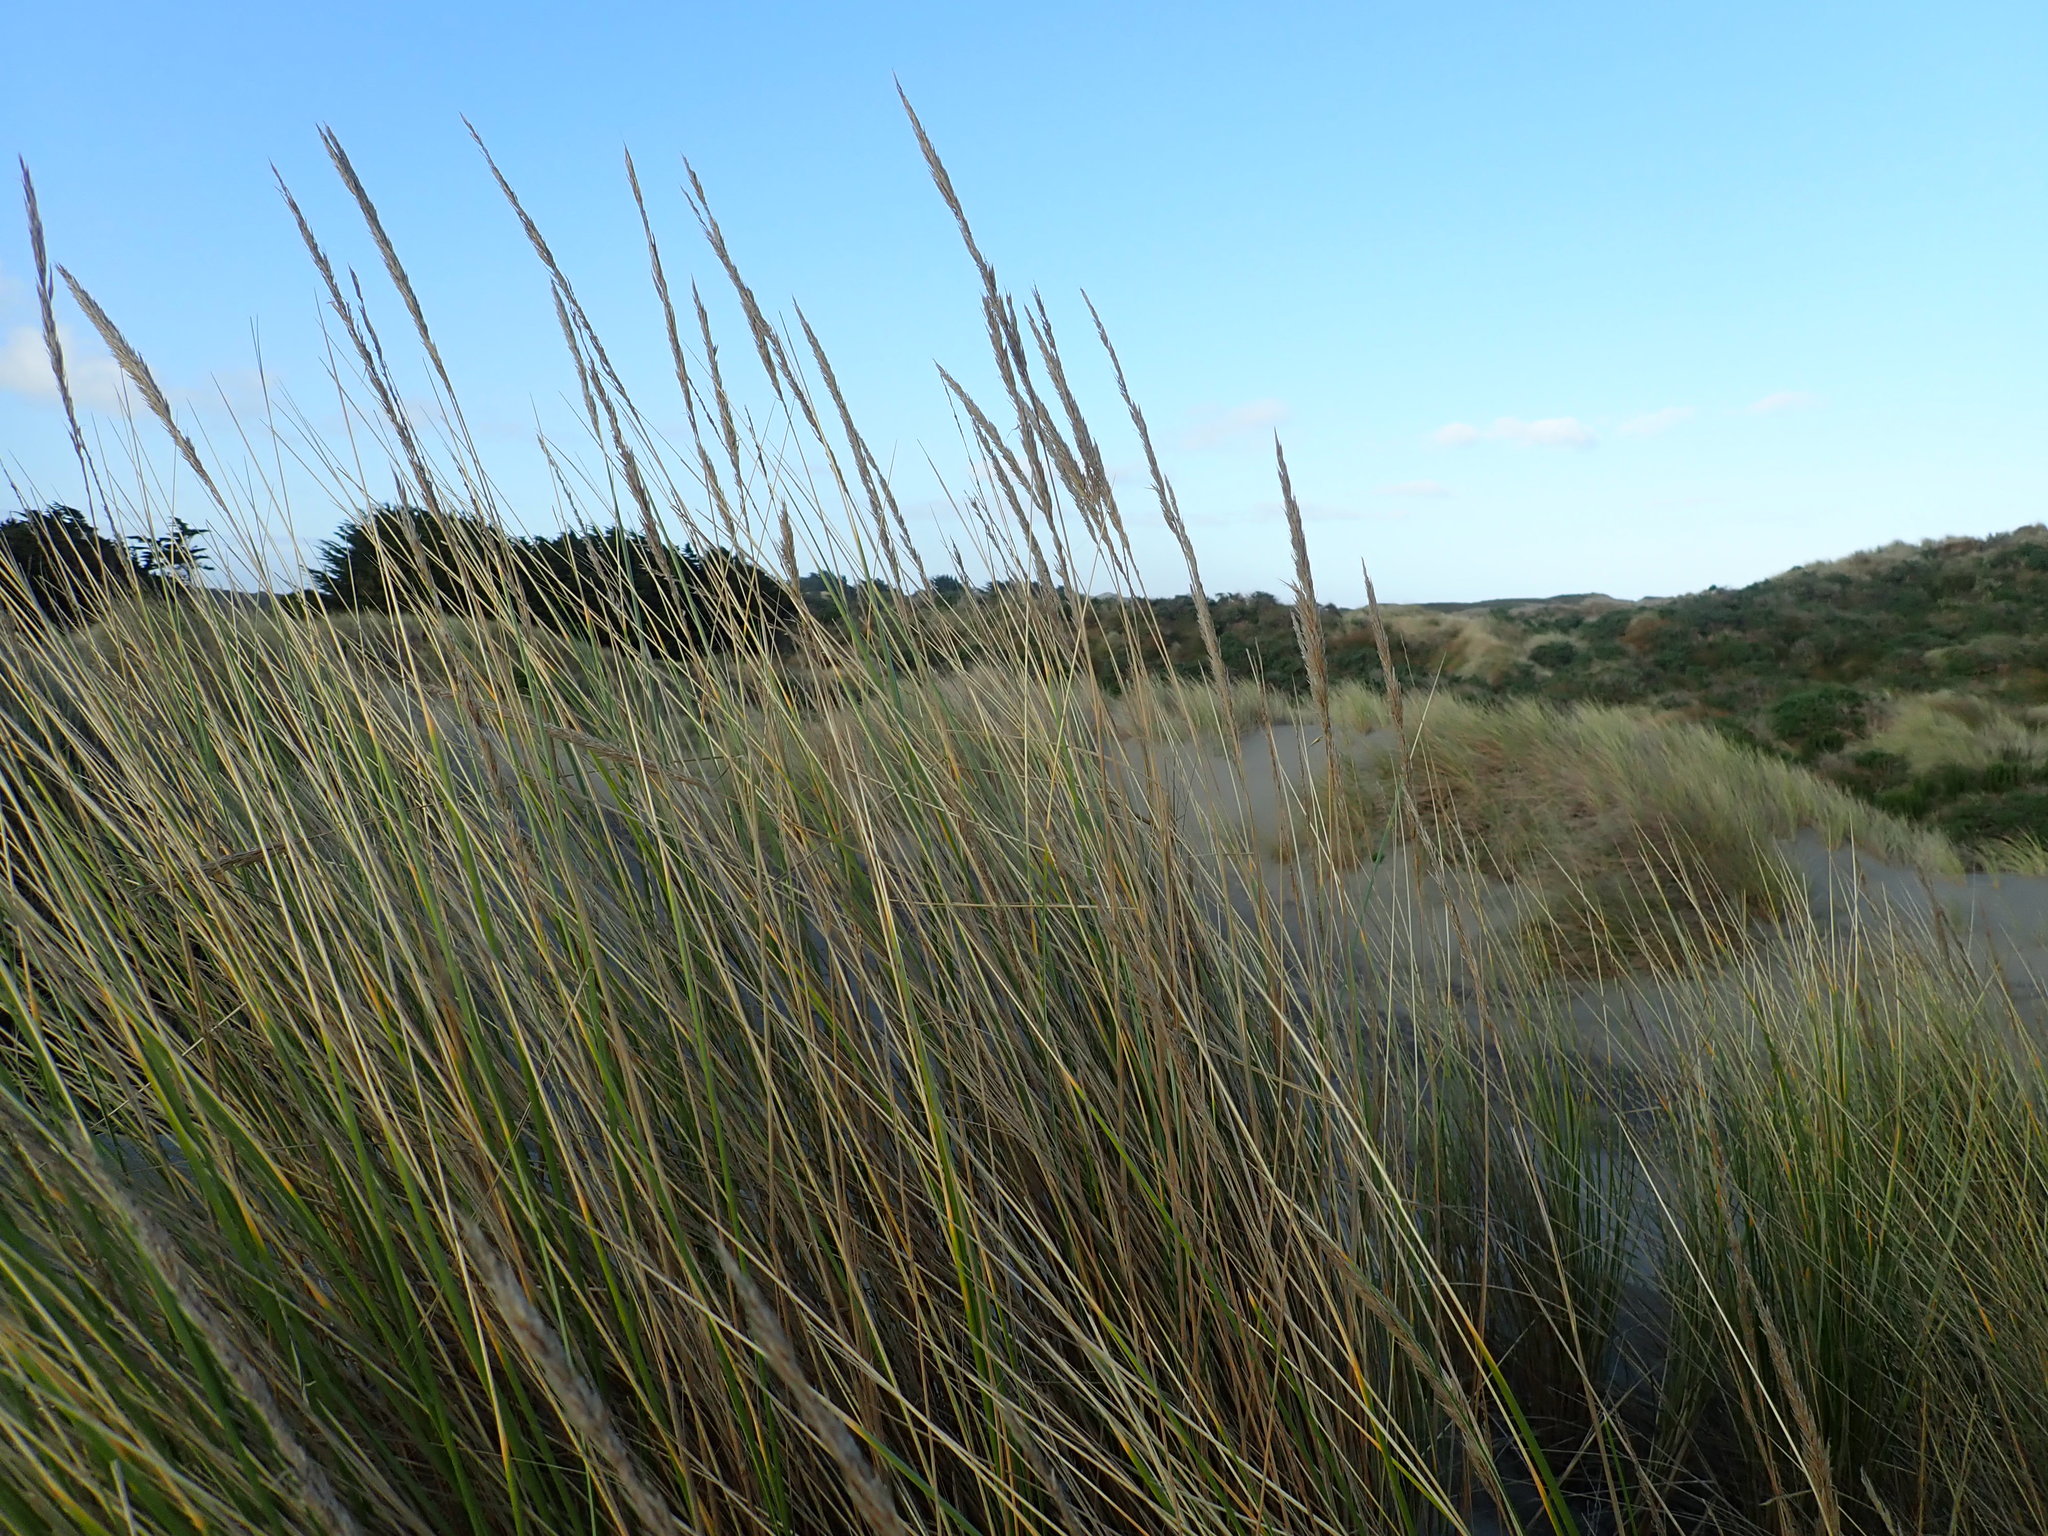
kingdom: Plantae
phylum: Tracheophyta
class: Liliopsida
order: Poales
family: Poaceae
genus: Calamagrostis
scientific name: Calamagrostis arenaria
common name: European beachgrass
